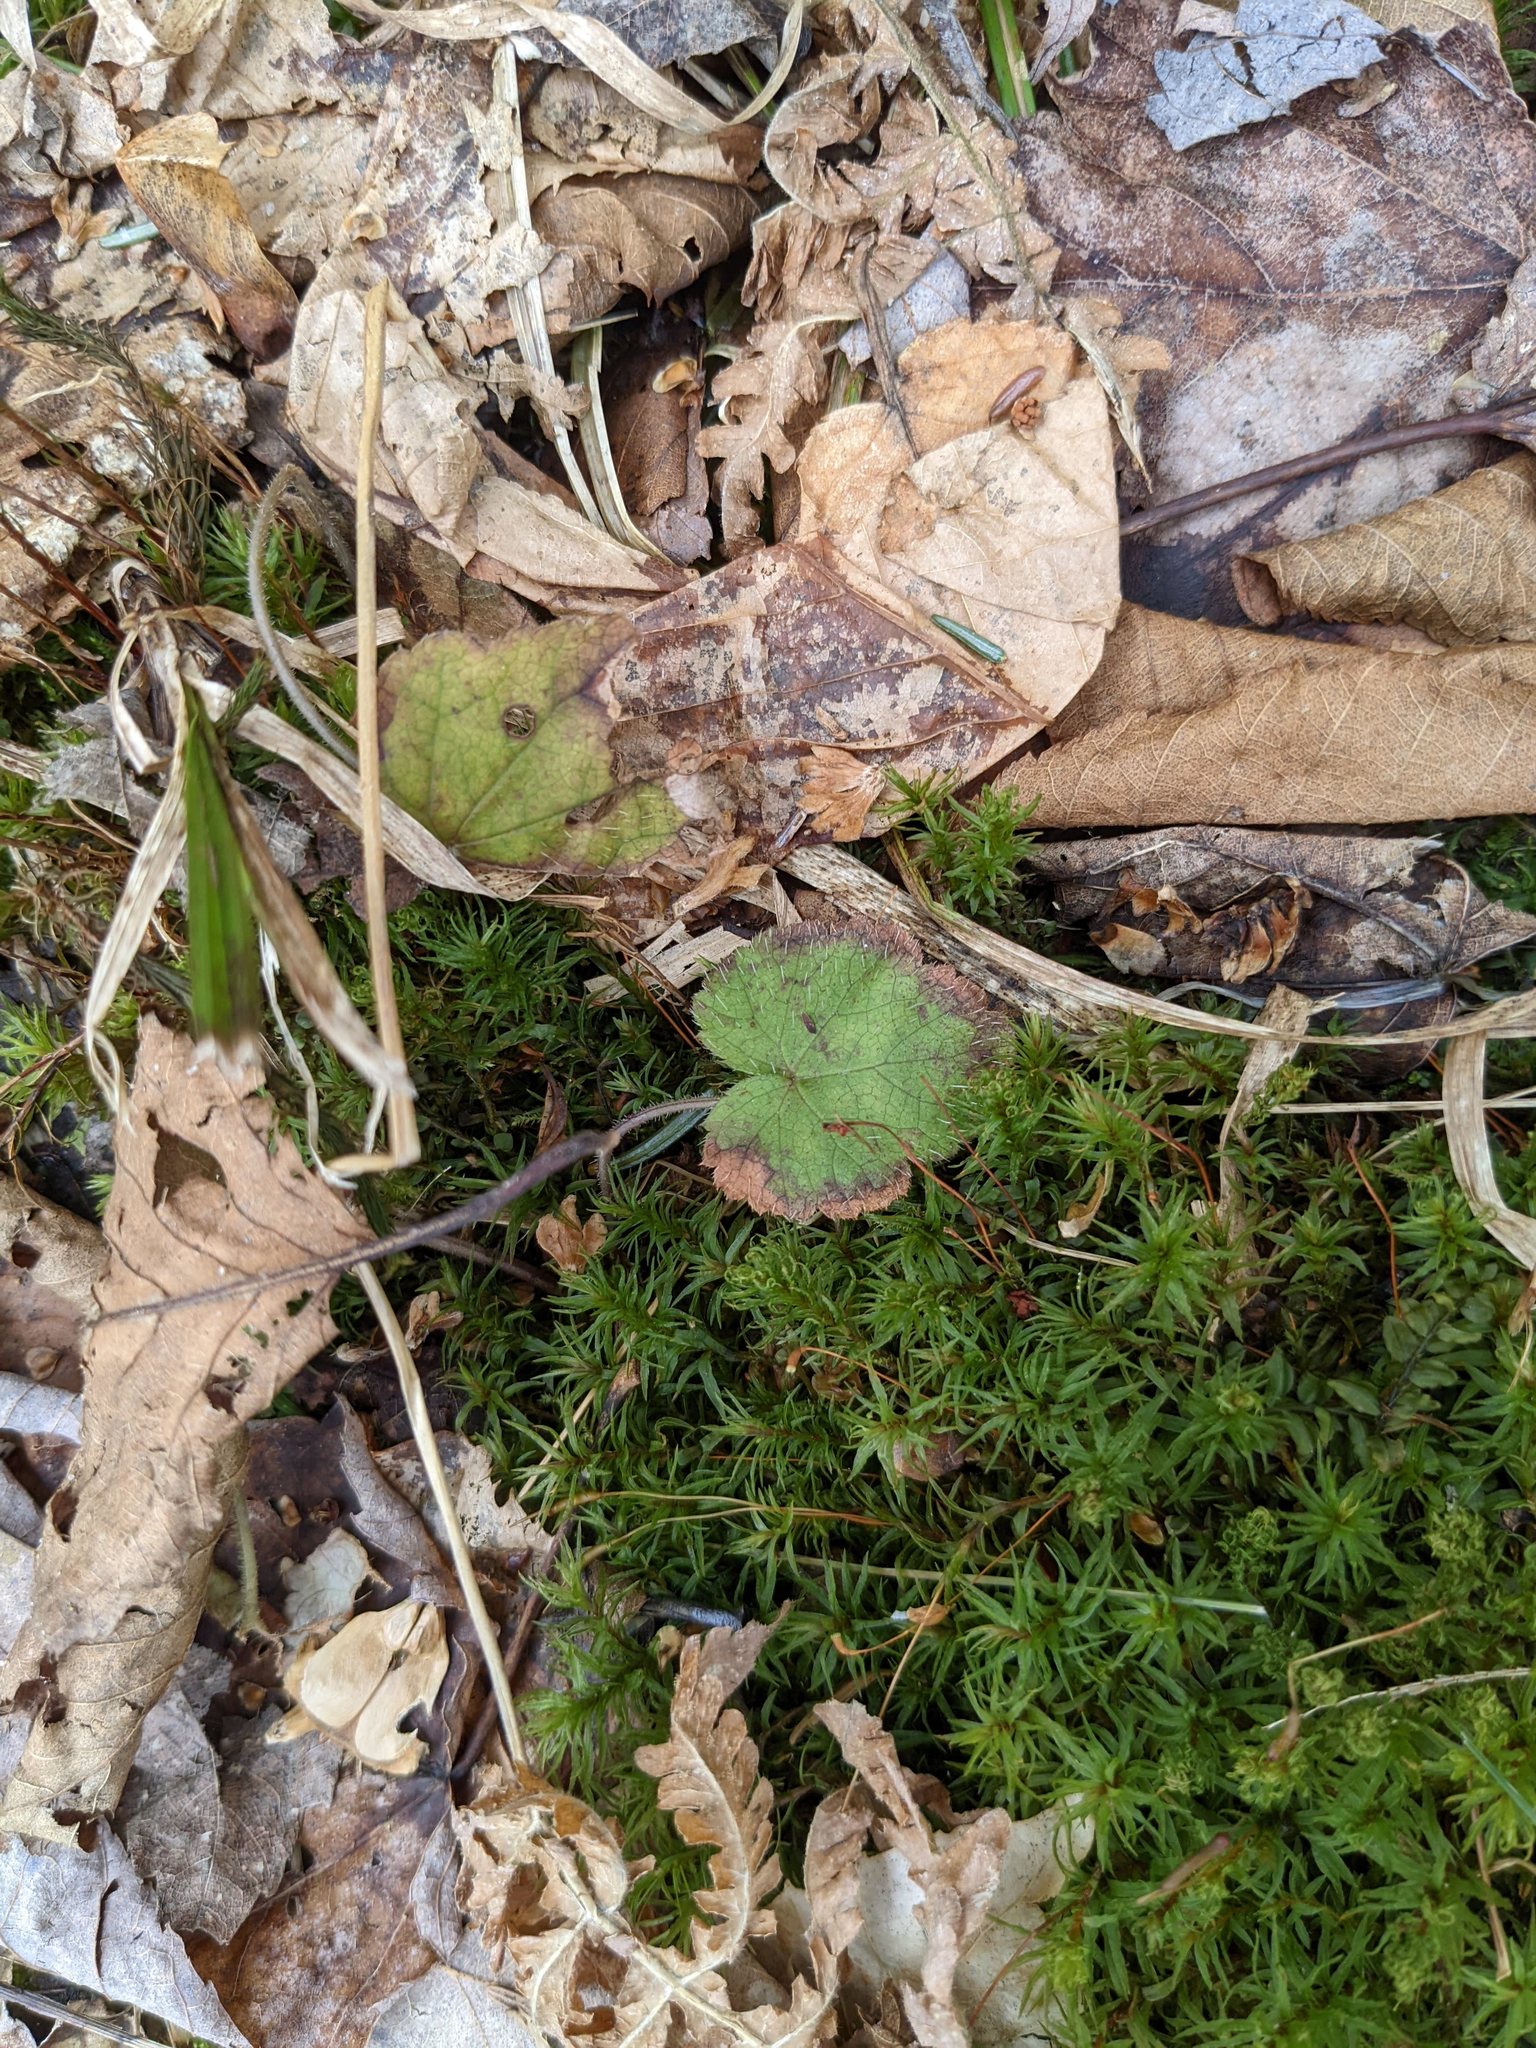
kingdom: Plantae
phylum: Tracheophyta
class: Magnoliopsida
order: Saxifragales
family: Saxifragaceae
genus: Tiarella
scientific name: Tiarella stolonifera
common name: Stoloniferous foamflower
